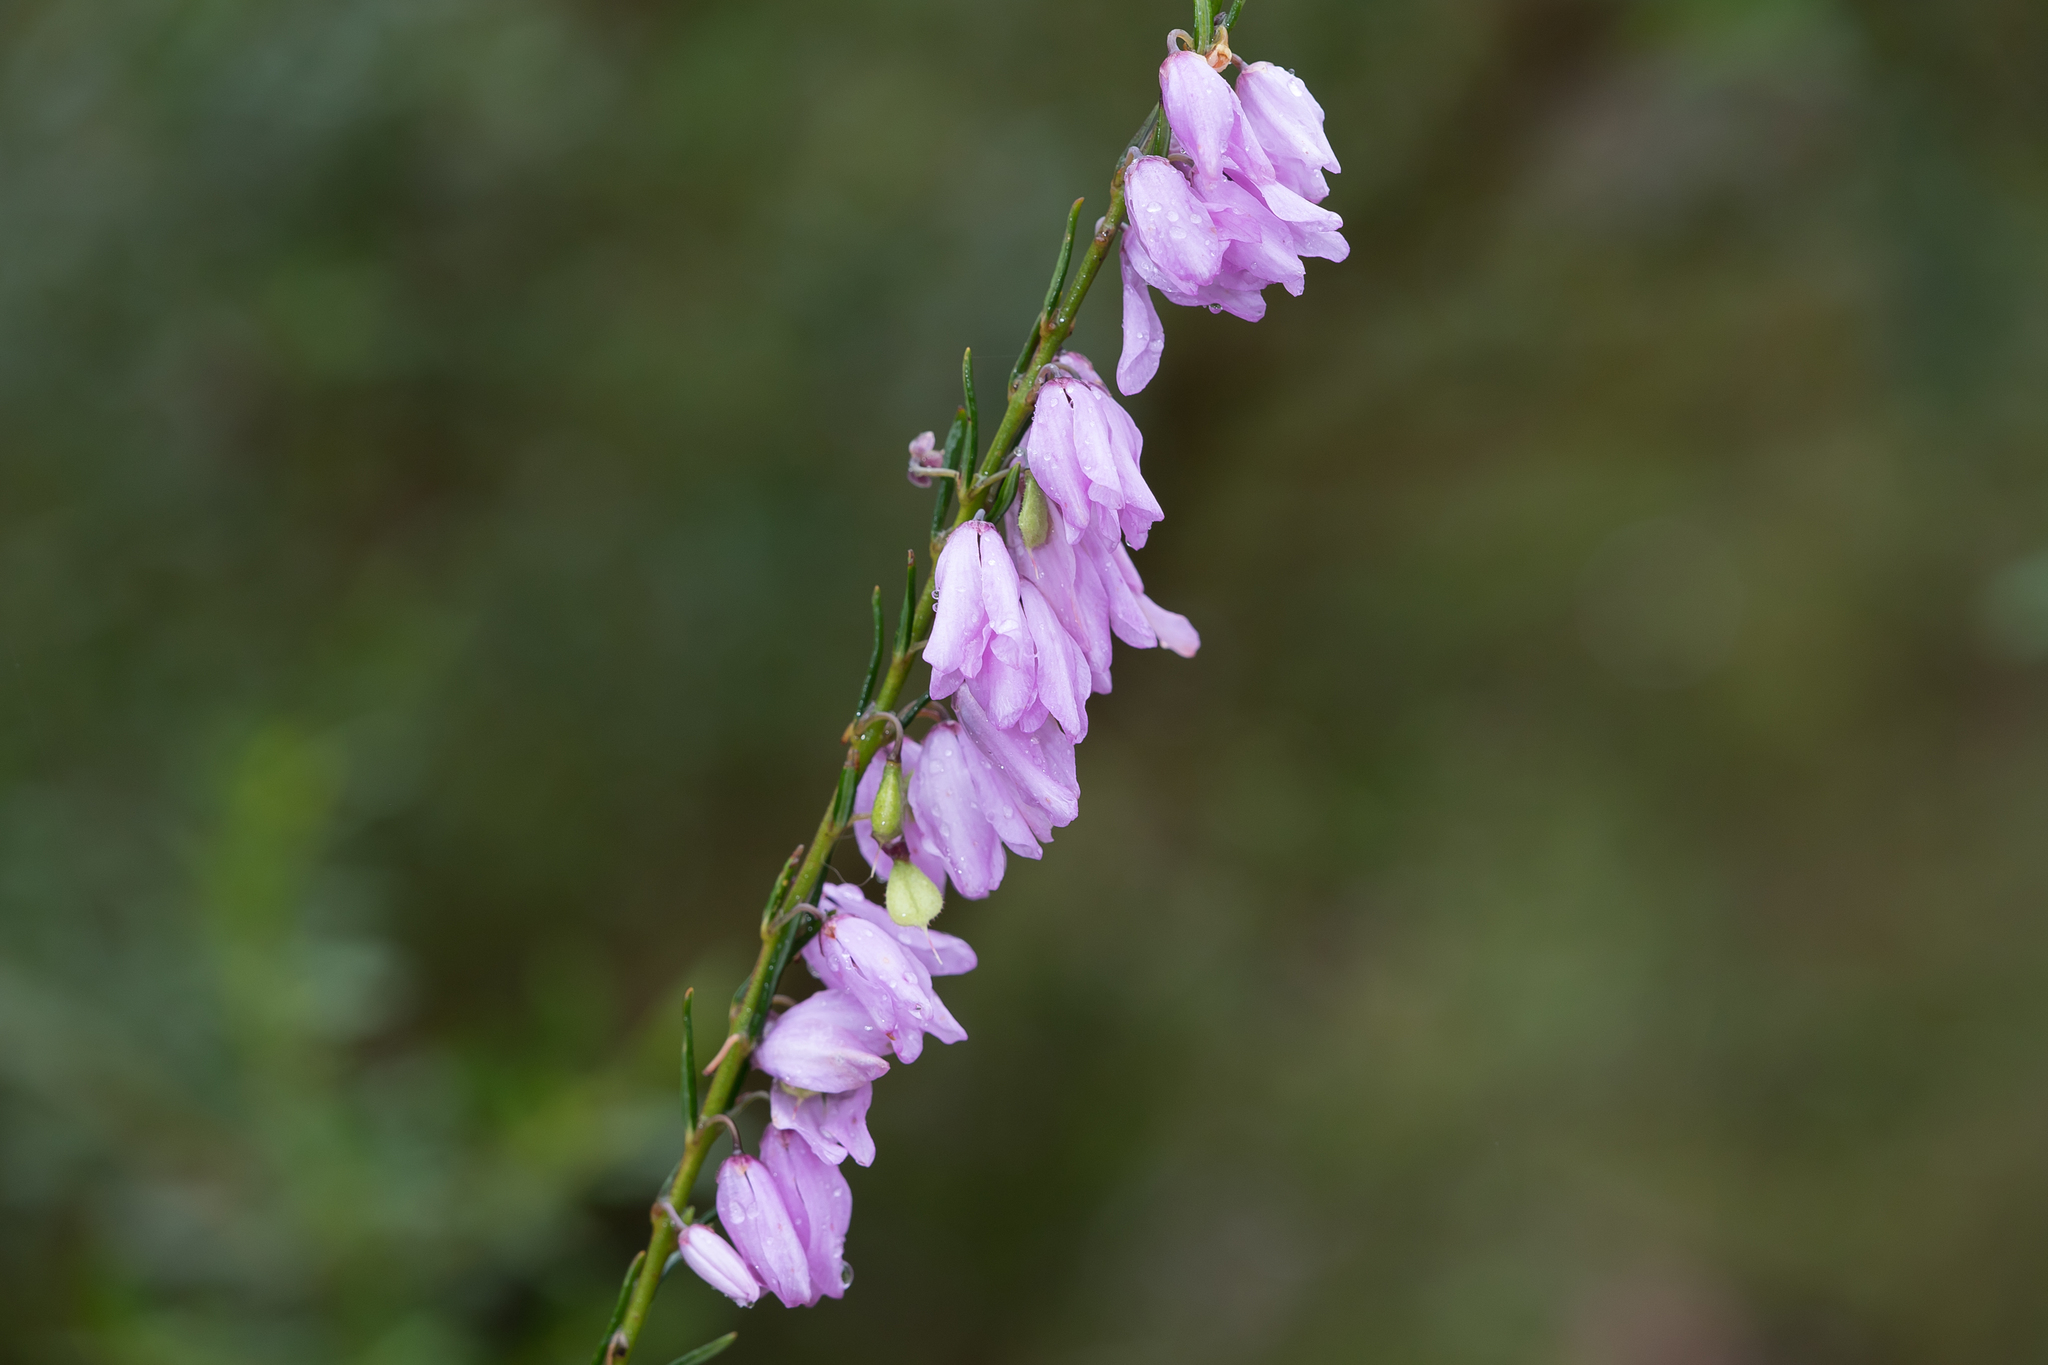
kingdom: Plantae
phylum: Tracheophyta
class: Magnoliopsida
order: Oxalidales
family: Elaeocarpaceae
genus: Tetratheca
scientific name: Tetratheca pilosa
